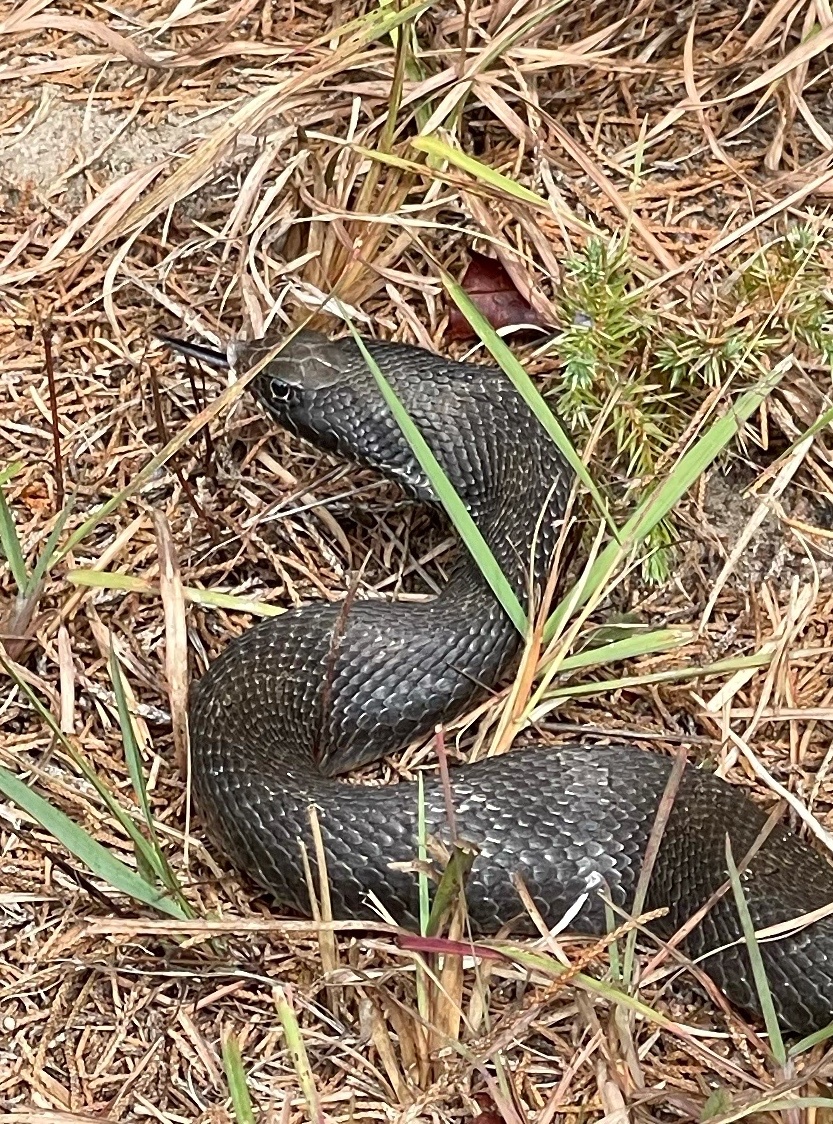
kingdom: Animalia
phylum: Chordata
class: Squamata
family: Colubridae
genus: Heterodon
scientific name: Heterodon platirhinos
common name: Eastern hognose snake
